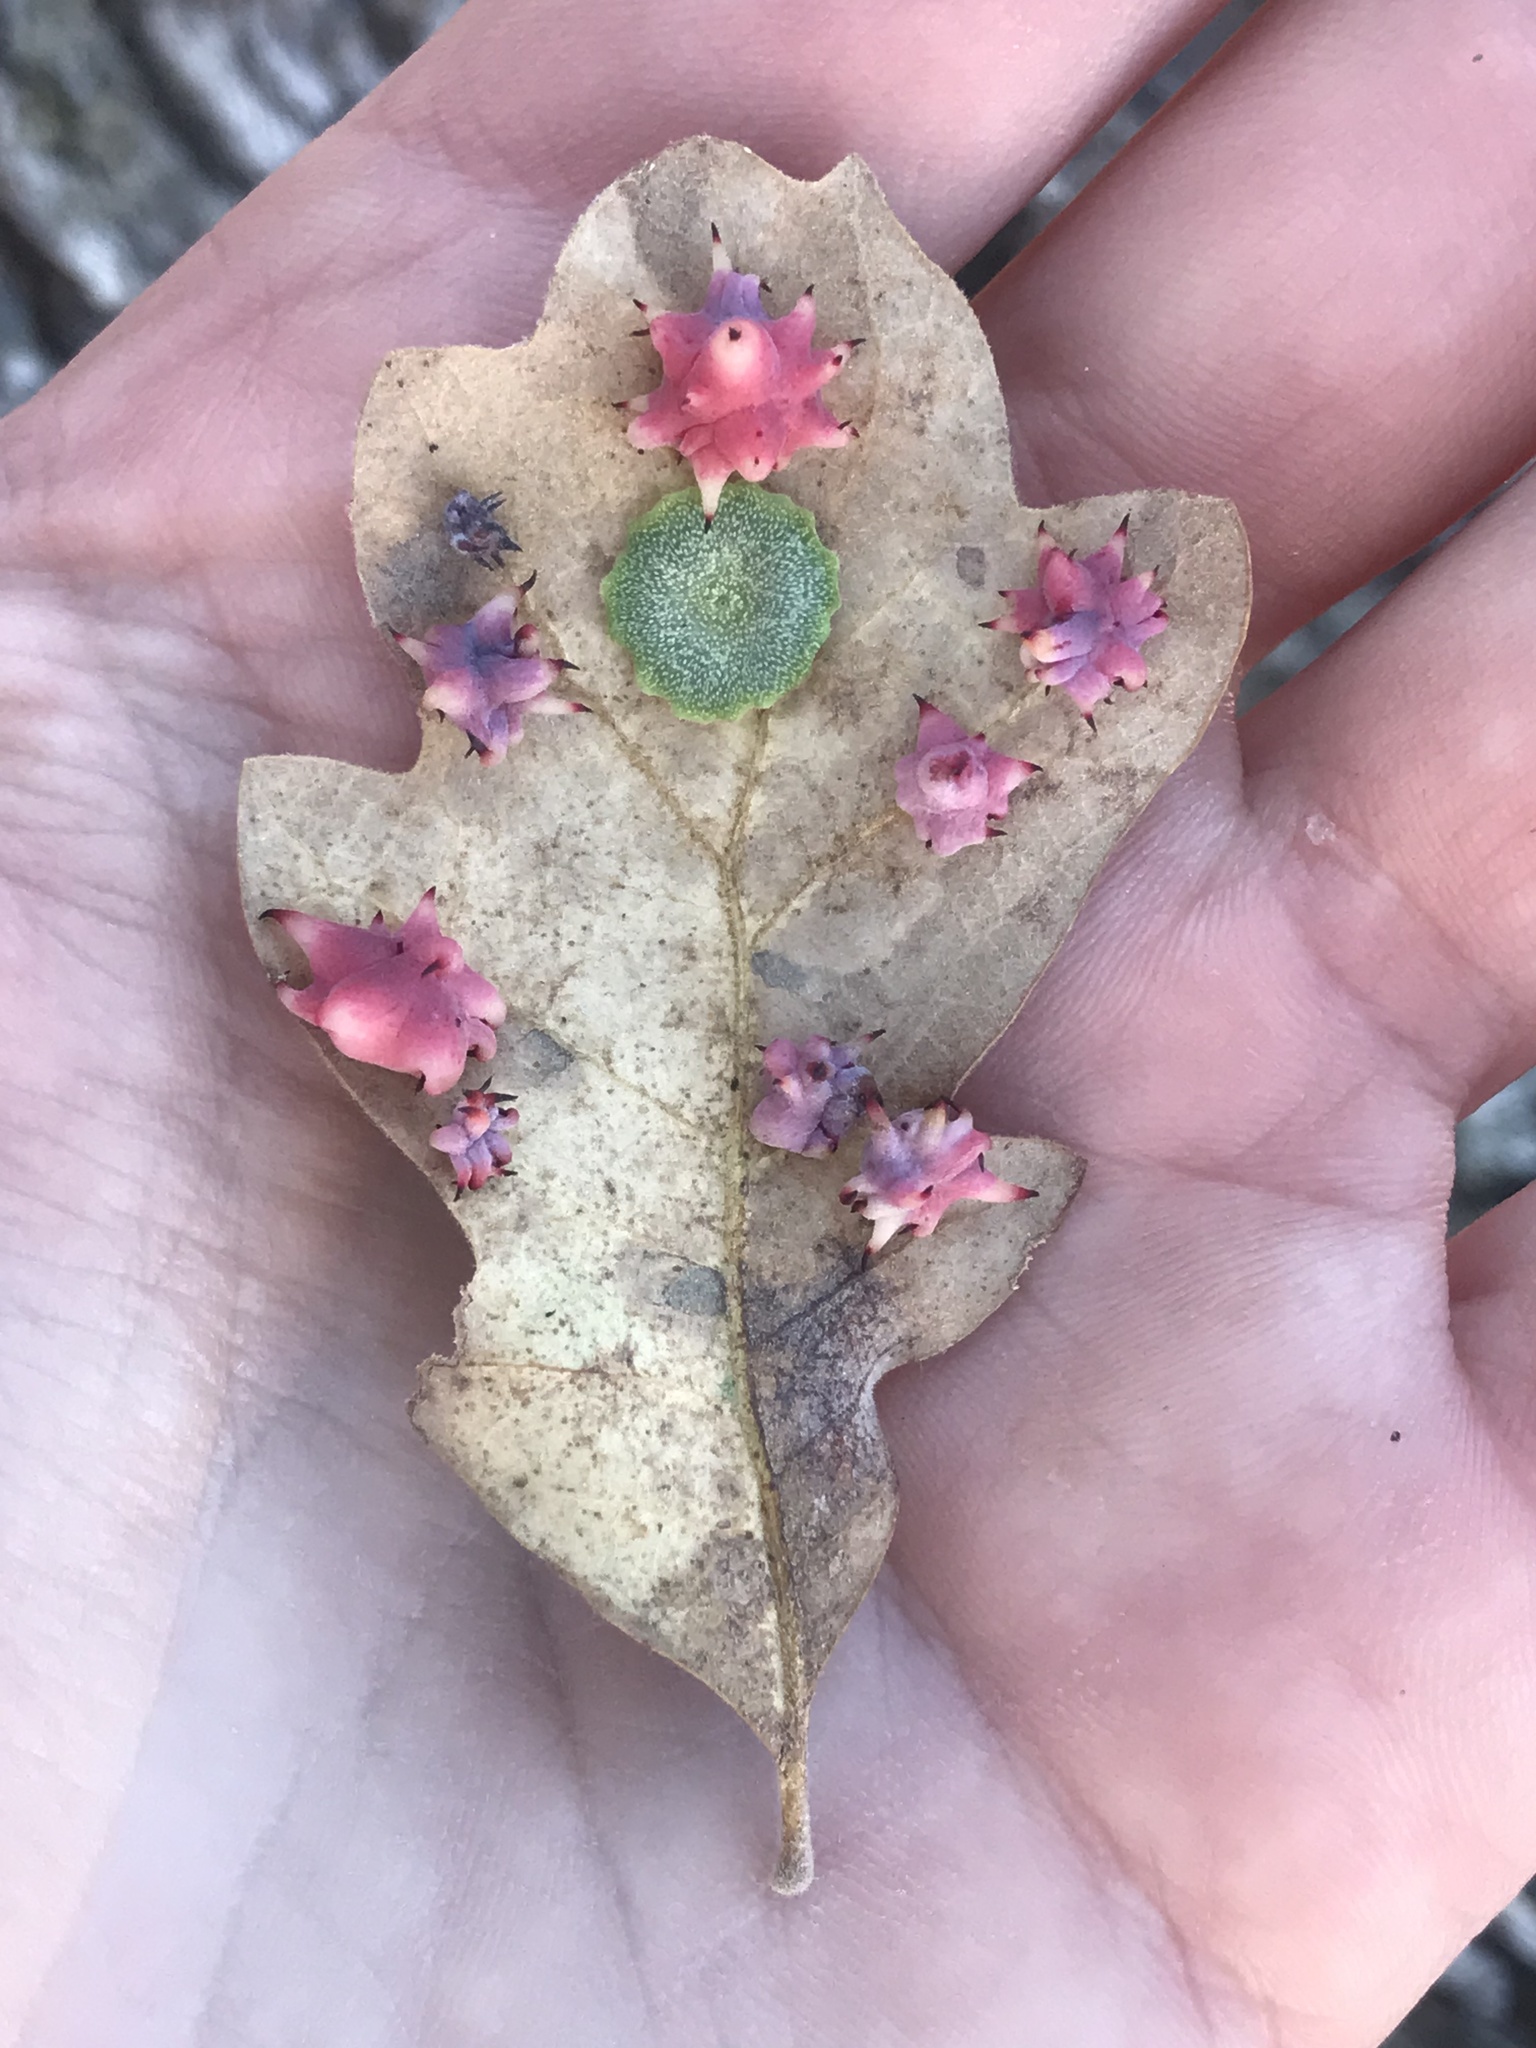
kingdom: Animalia
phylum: Arthropoda
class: Insecta
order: Hymenoptera
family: Cynipidae
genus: Cynips
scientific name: Cynips
